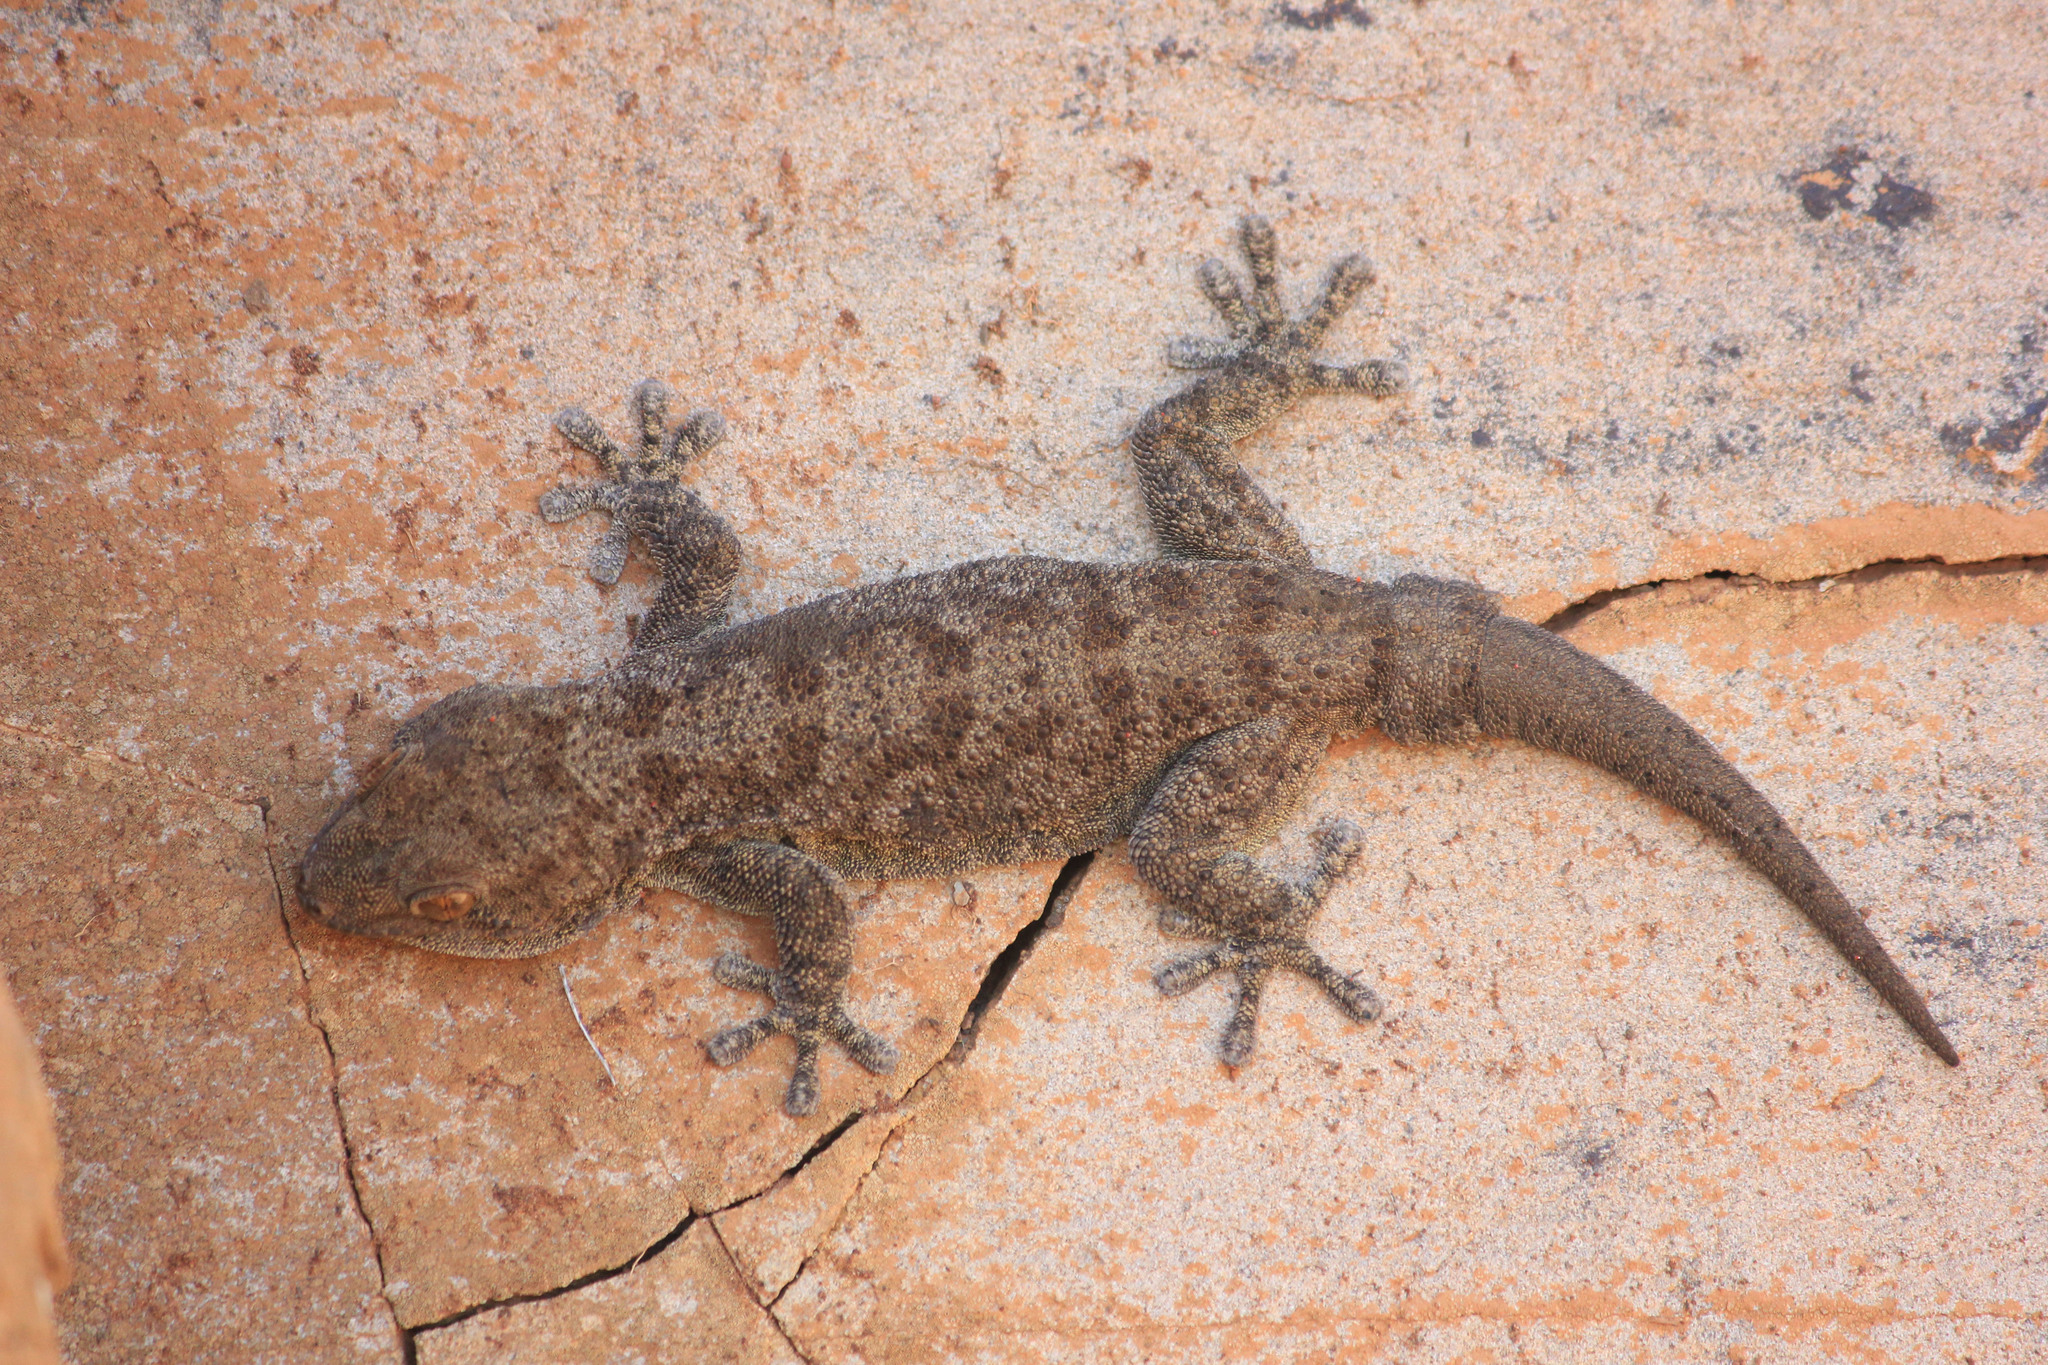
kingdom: Animalia
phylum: Chordata
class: Squamata
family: Gekkonidae
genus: Pachydactylus
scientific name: Pachydactylus kladaroderma
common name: Thin-skinned gecko
